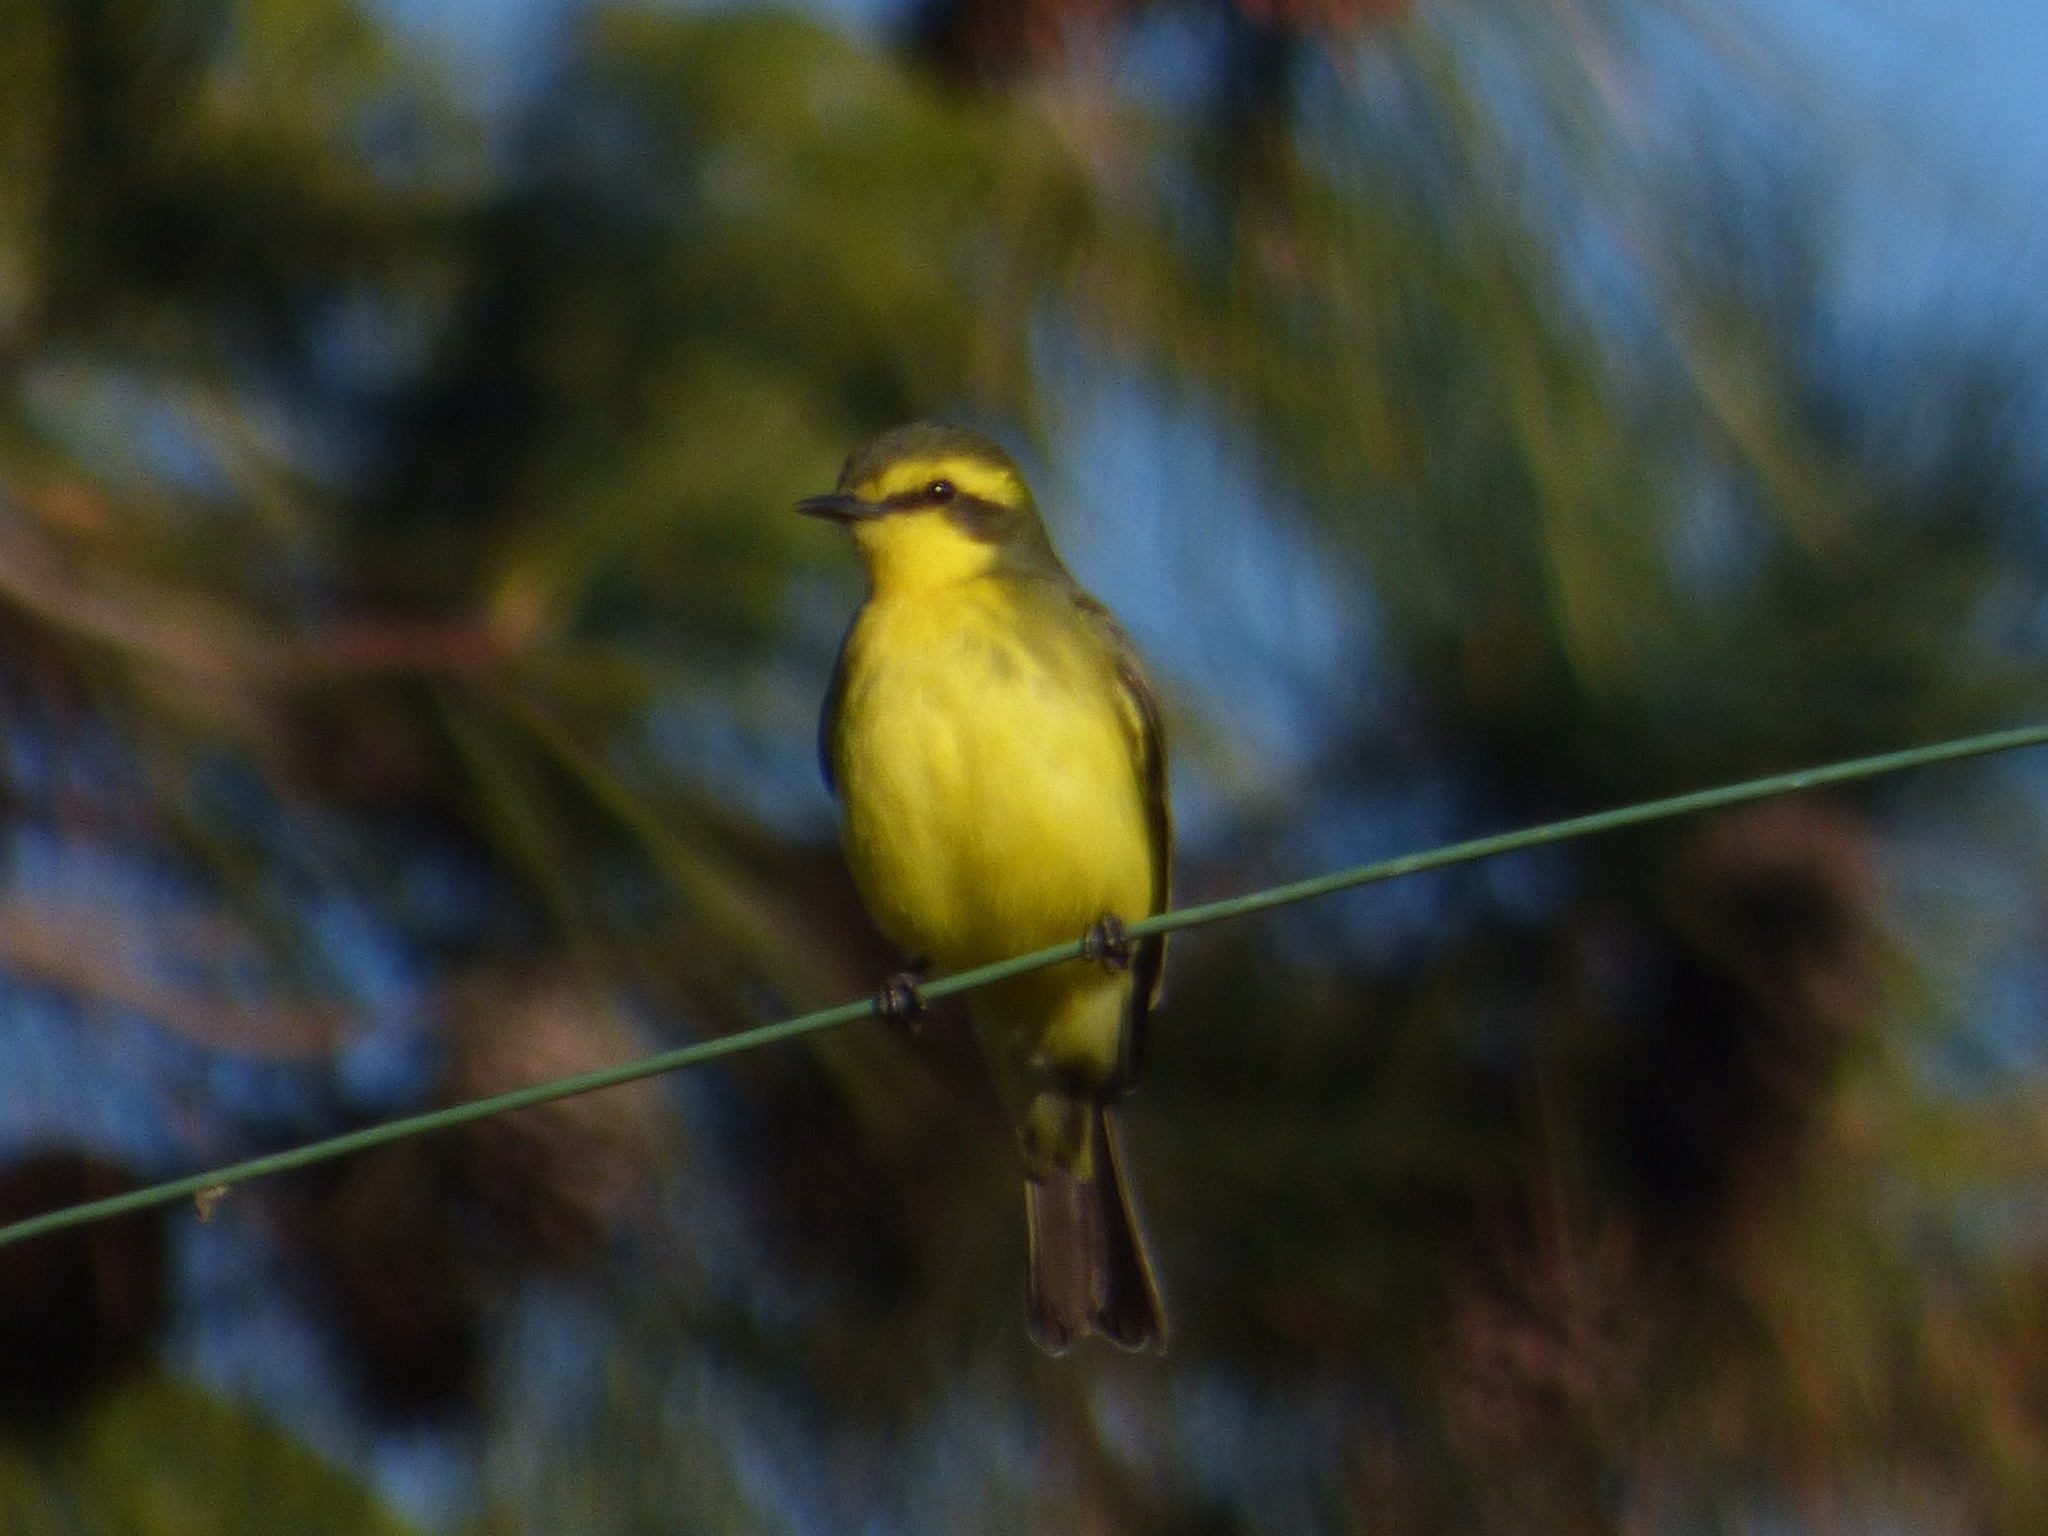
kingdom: Animalia
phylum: Chordata
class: Aves
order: Passeriformes
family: Tyrannidae
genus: Satrapa
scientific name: Satrapa icterophrys
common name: Yellow-browed tyrant
